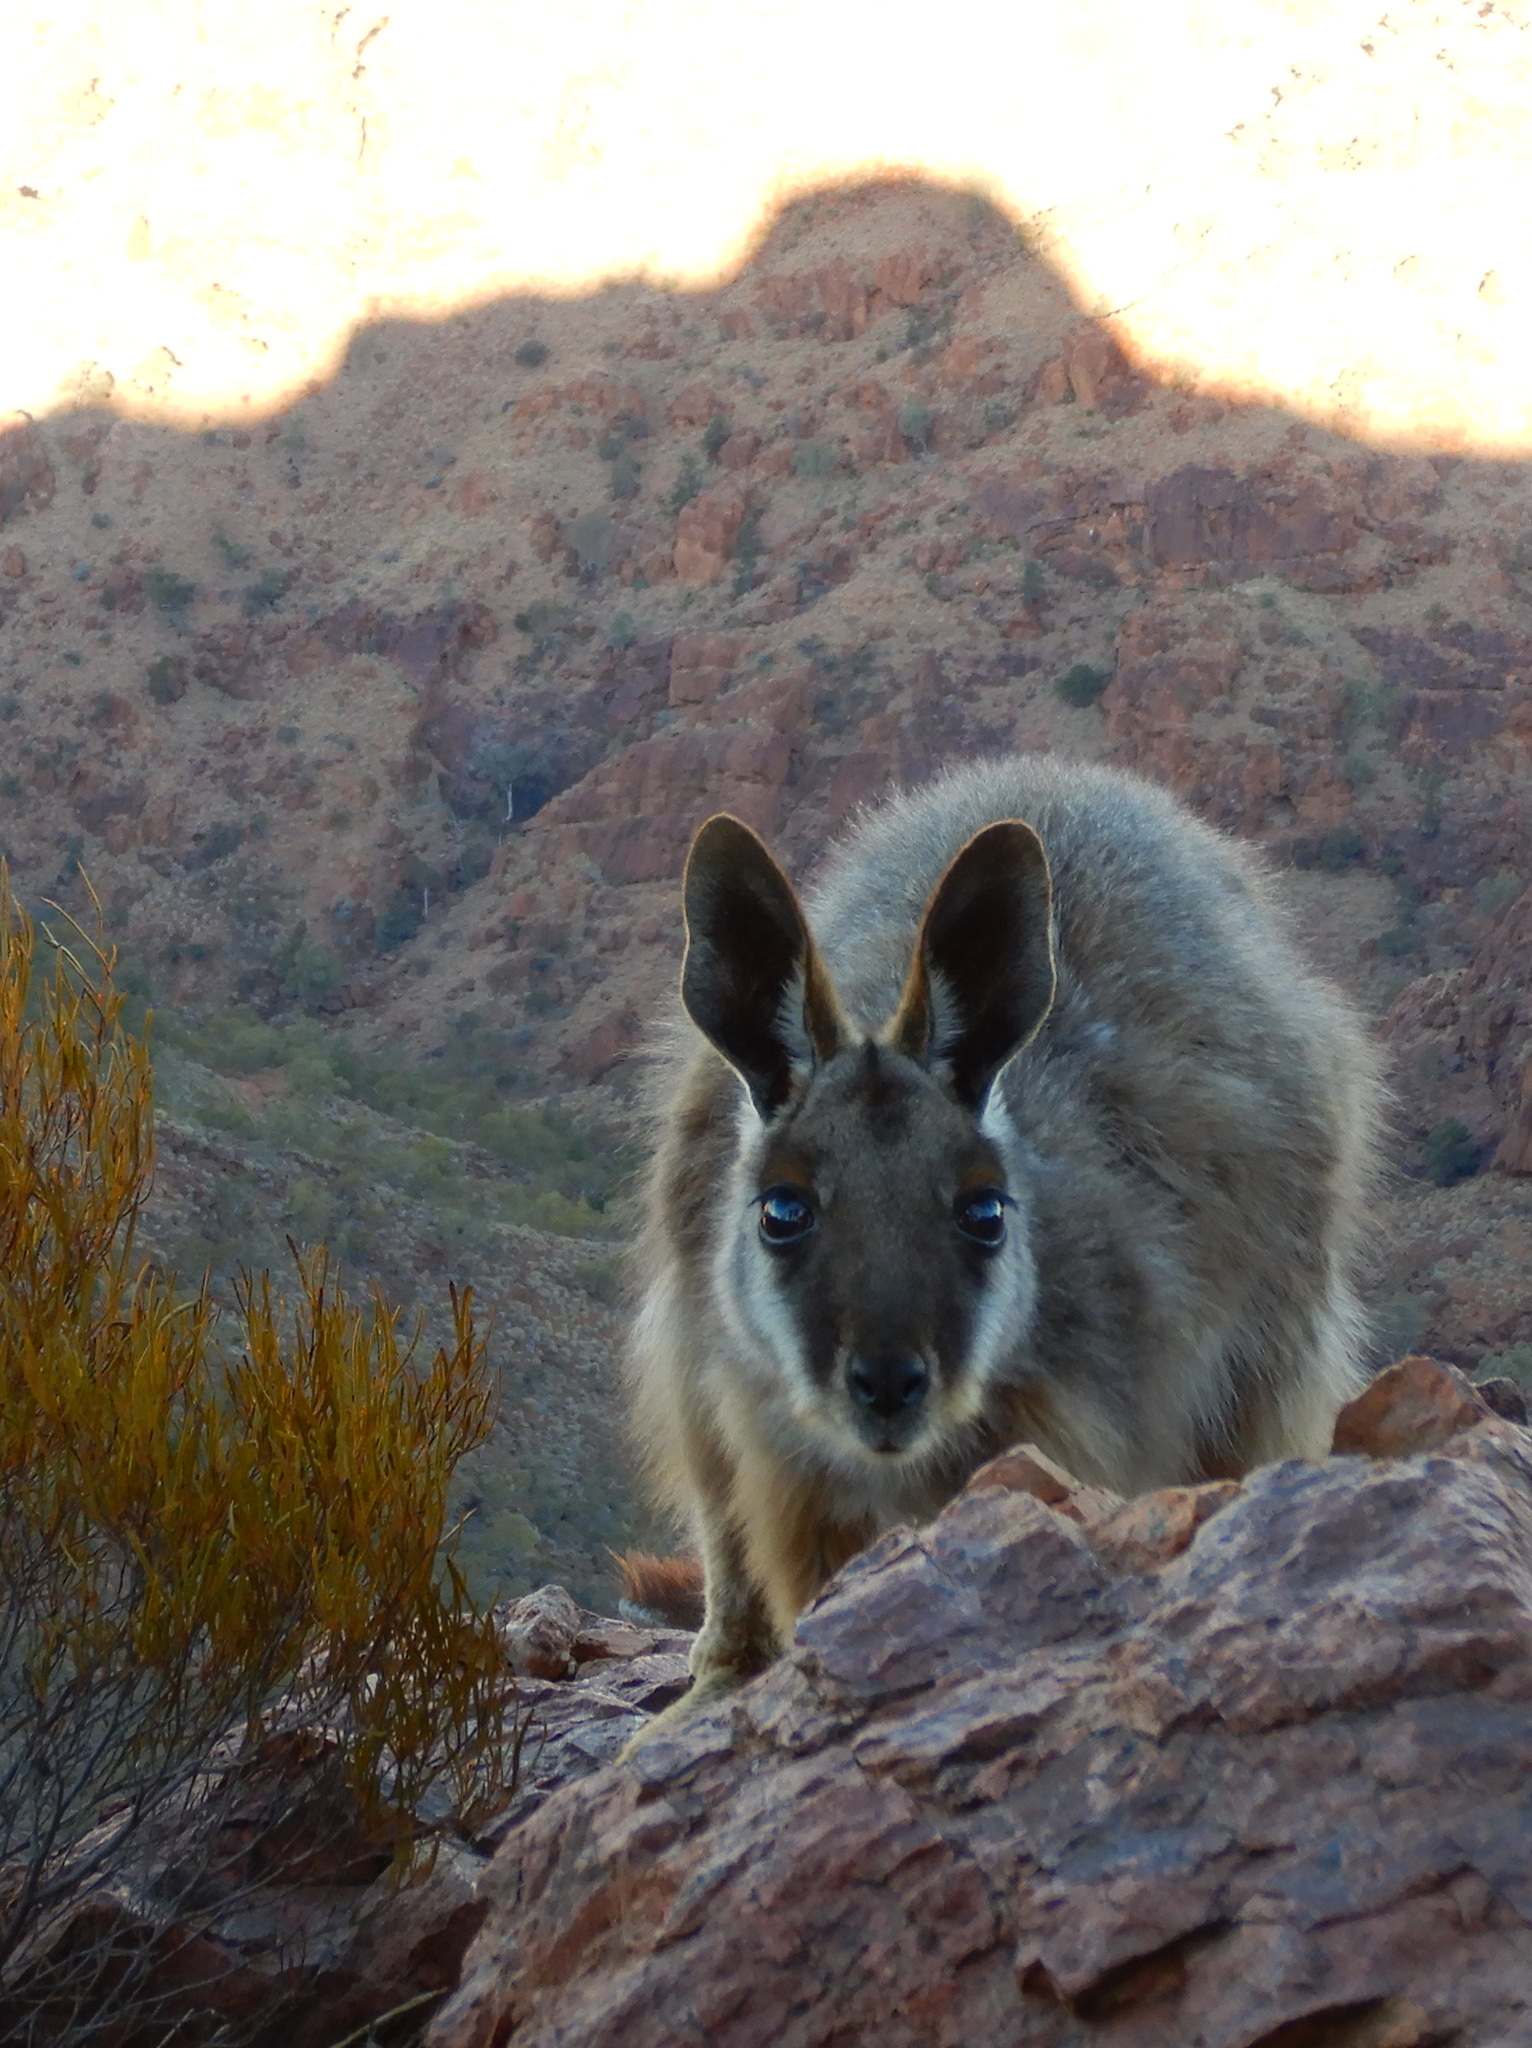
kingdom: Animalia
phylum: Chordata
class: Mammalia
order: Diprotodontia
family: Macropodidae
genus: Petrogale
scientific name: Petrogale xanthopus
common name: Yellow-footed rock-wallaby
